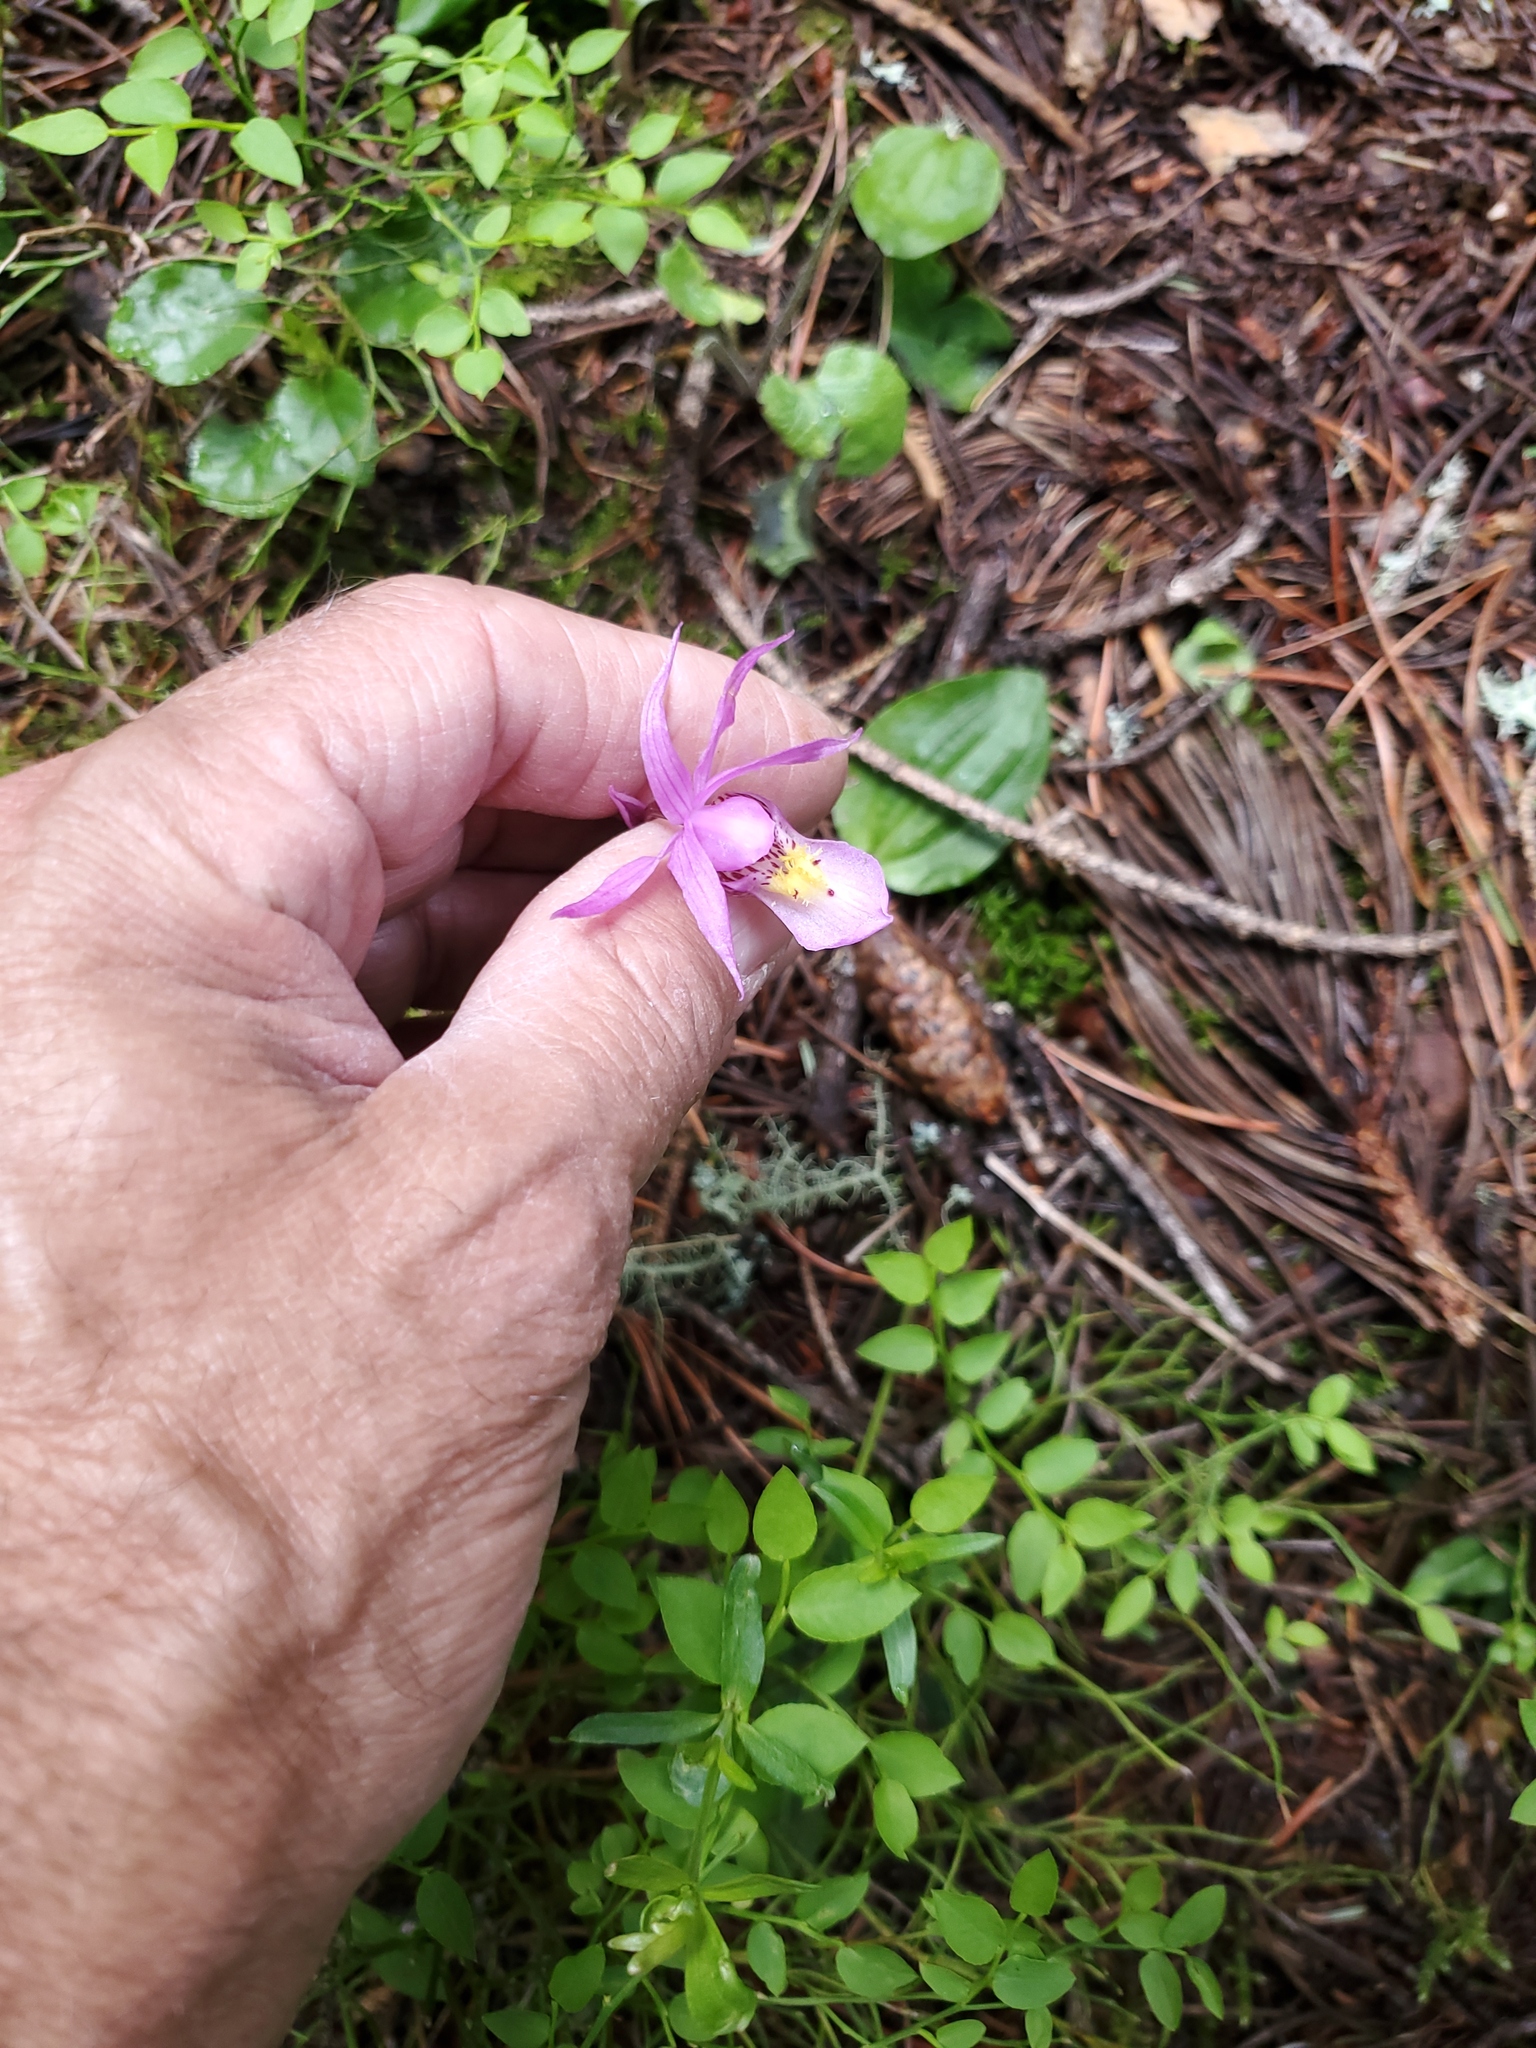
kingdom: Plantae
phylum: Tracheophyta
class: Liliopsida
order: Asparagales
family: Orchidaceae
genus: Calypso
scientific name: Calypso bulbosa
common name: Calypso
